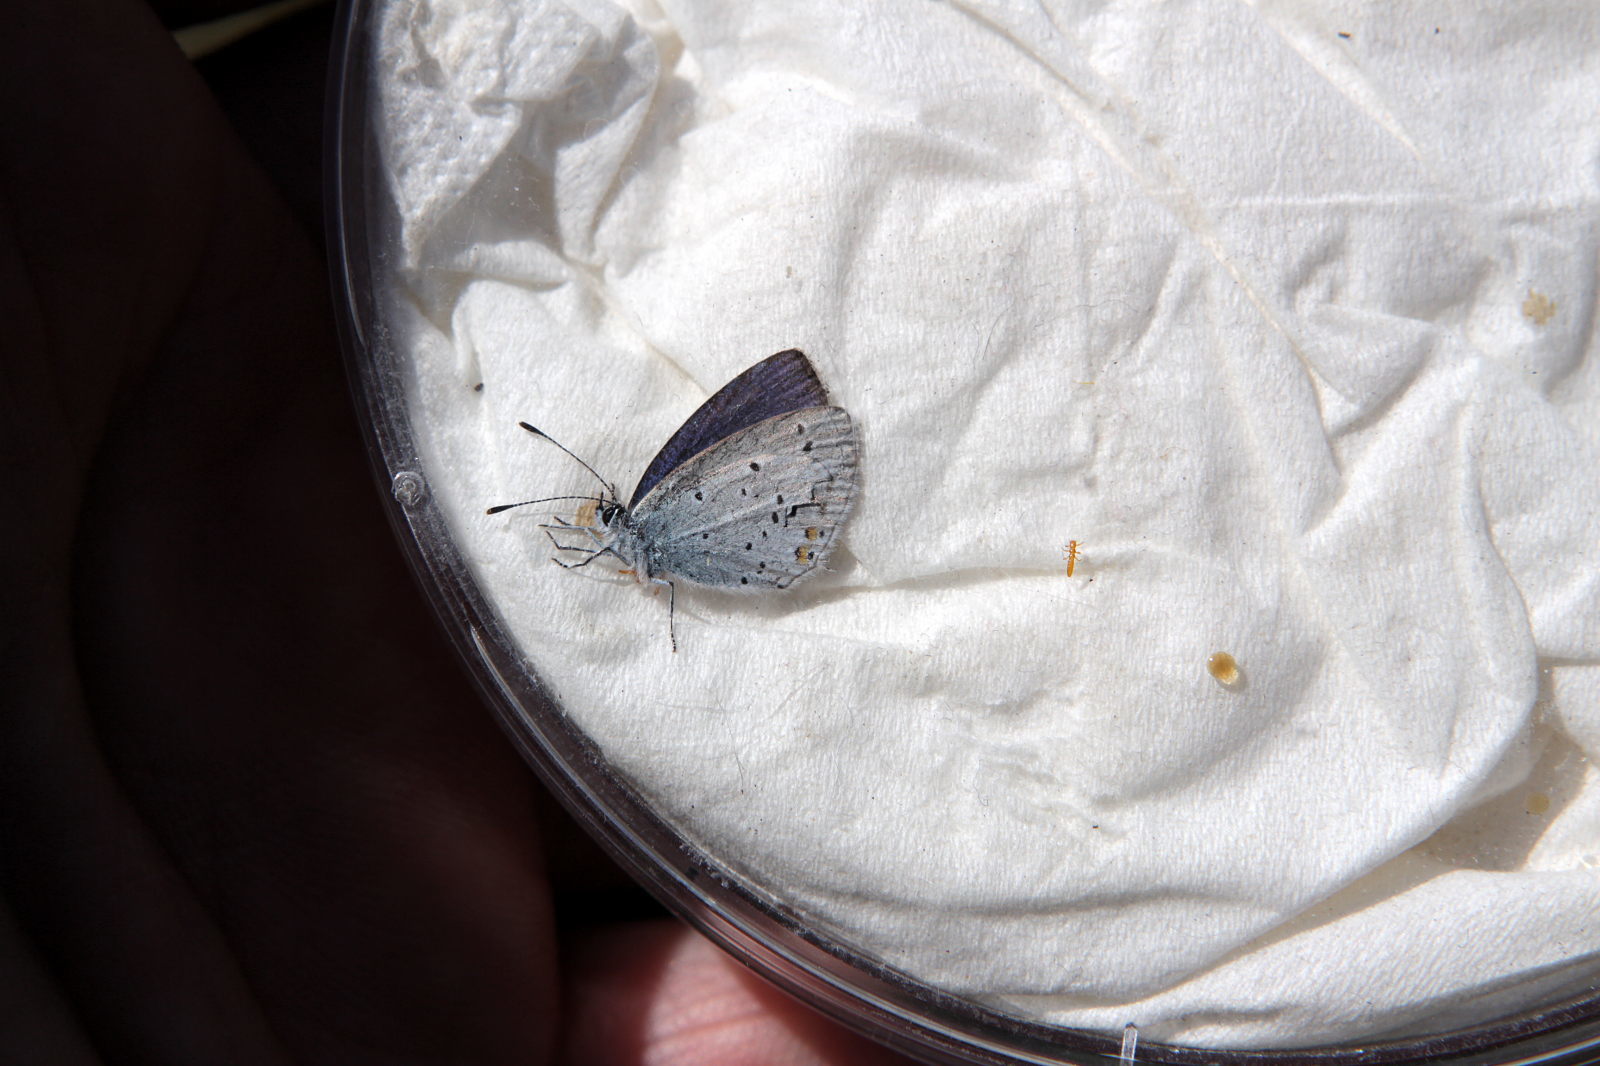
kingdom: Animalia
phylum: Arthropoda
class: Insecta
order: Lepidoptera
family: Lycaenidae
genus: Elkalyce
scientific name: Elkalyce argiades
